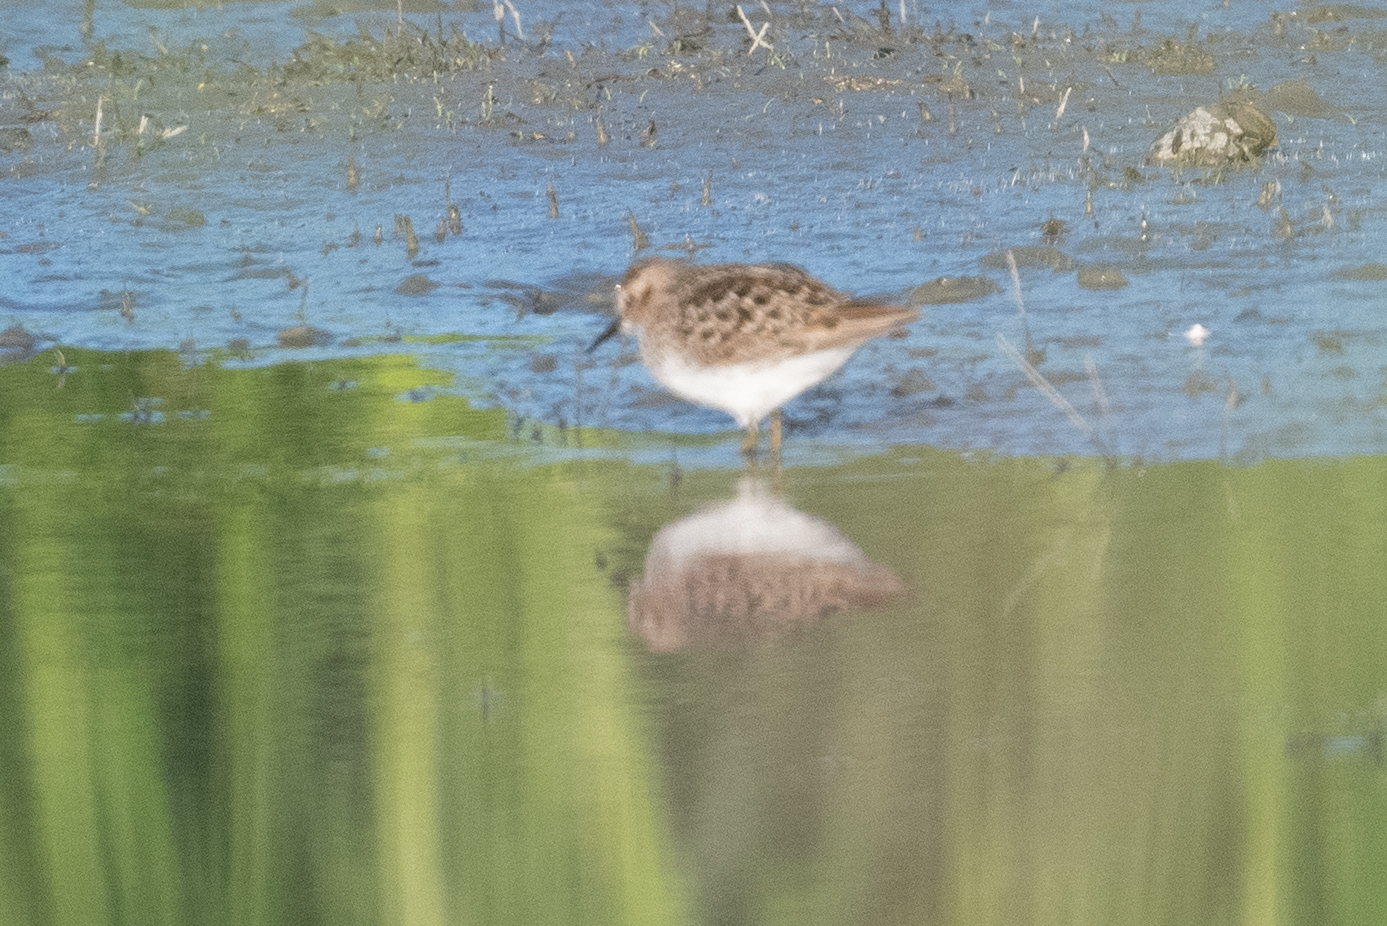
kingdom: Animalia
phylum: Chordata
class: Aves
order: Charadriiformes
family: Scolopacidae
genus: Calidris
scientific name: Calidris minutilla
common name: Least sandpiper
